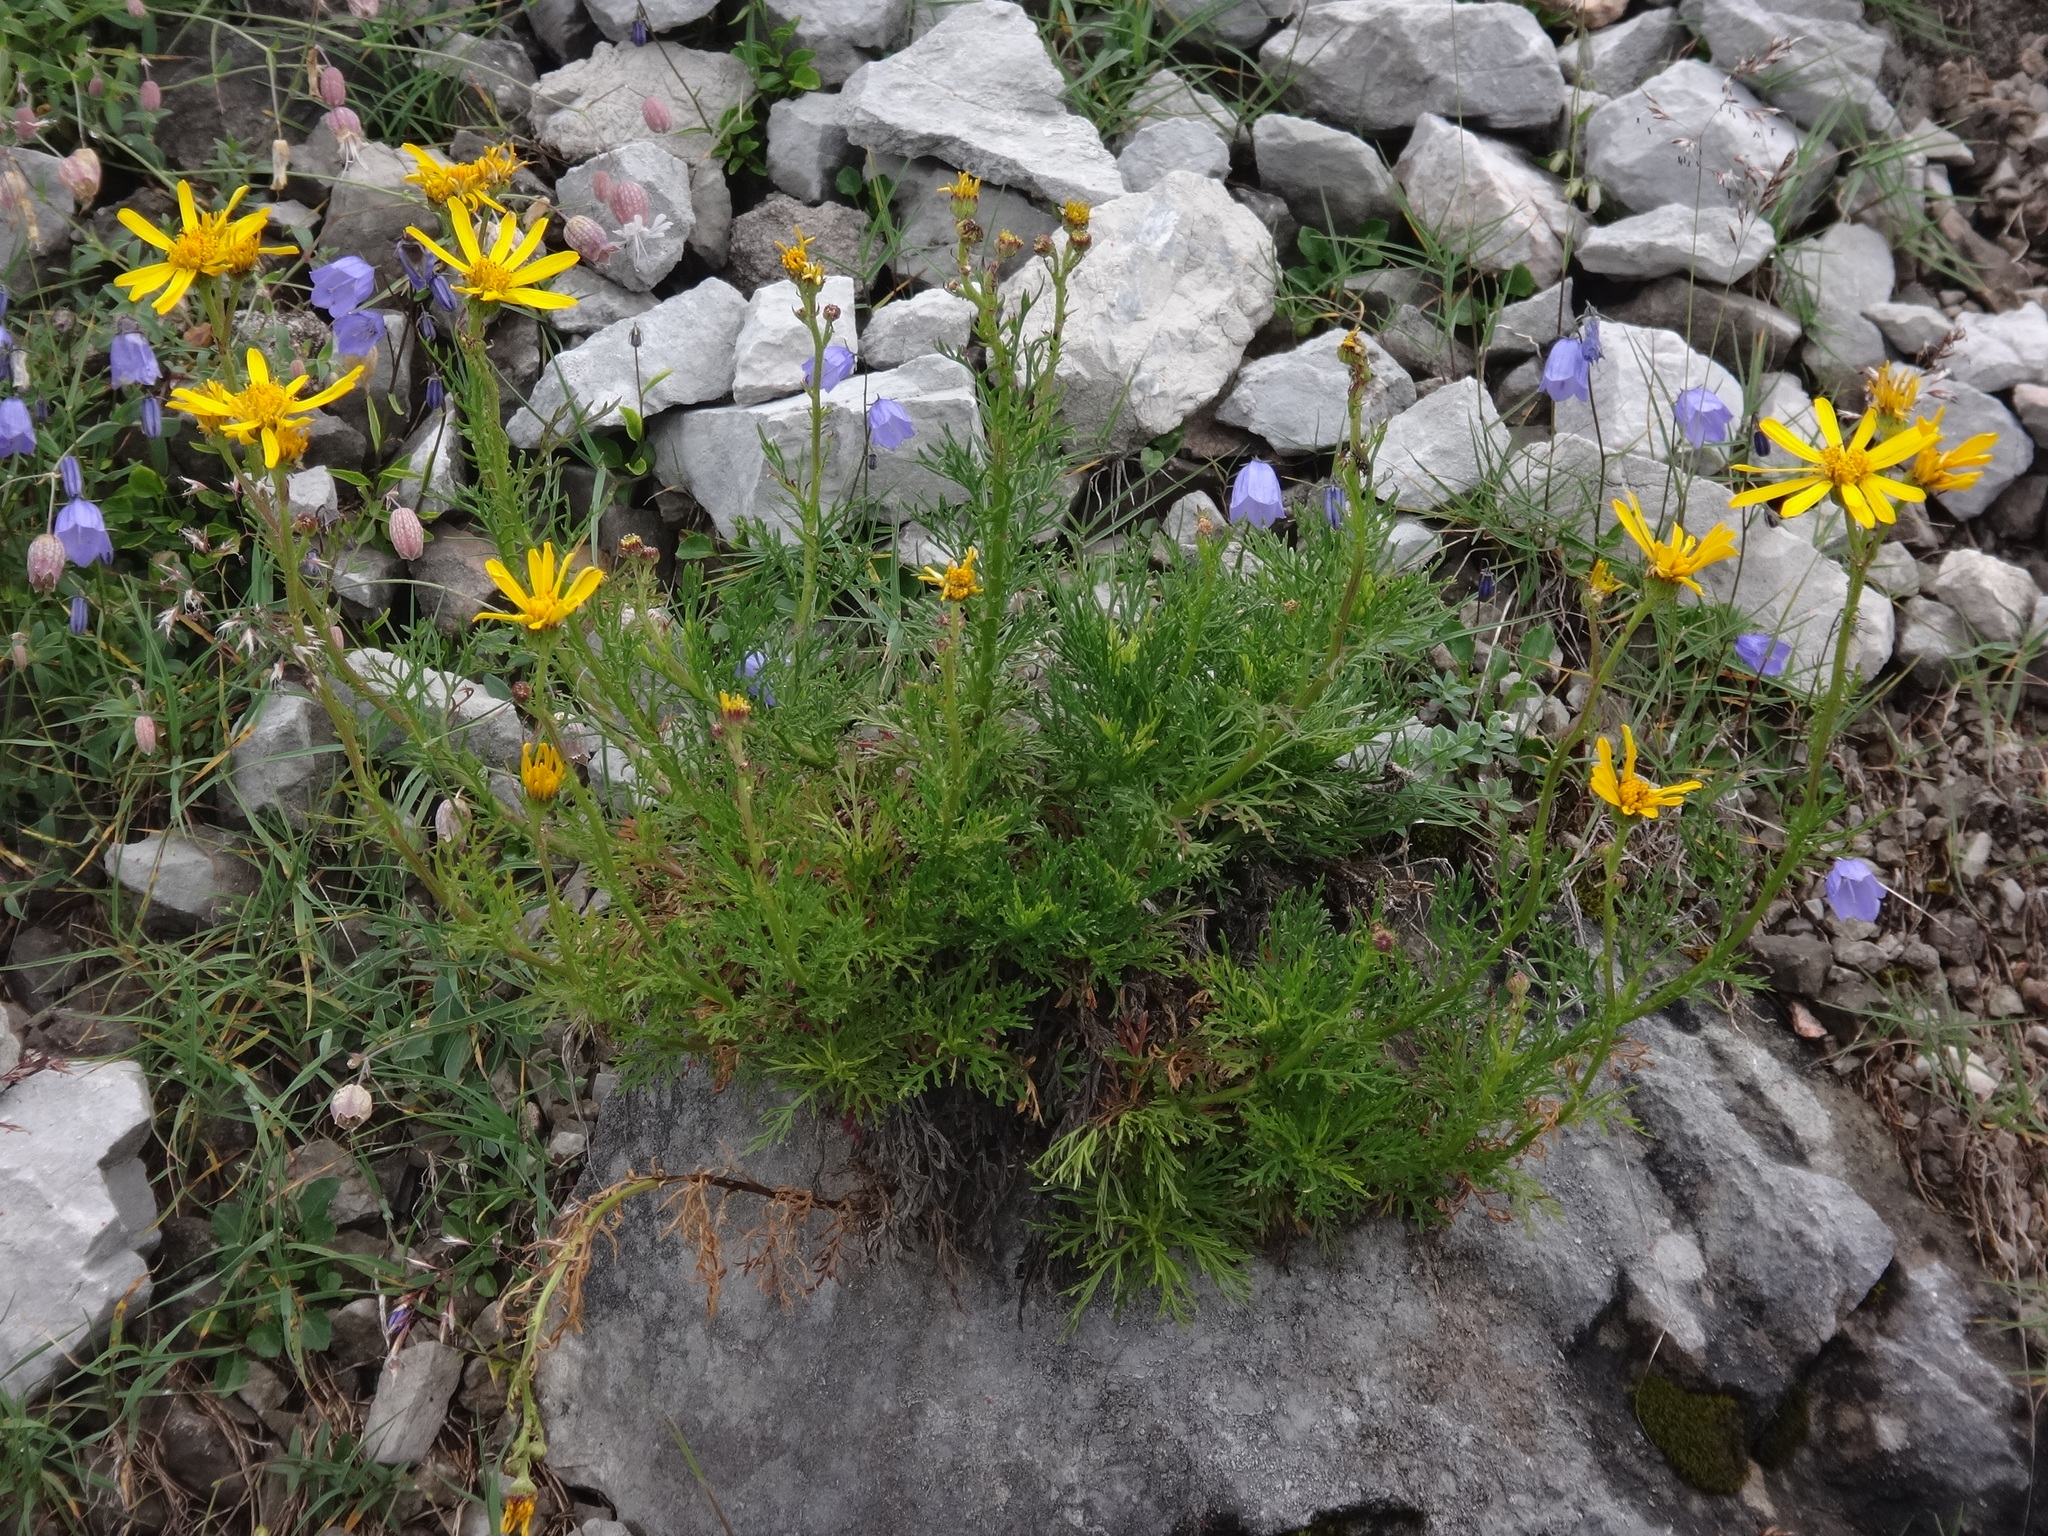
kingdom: Plantae
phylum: Tracheophyta
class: Magnoliopsida
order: Asterales
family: Asteraceae
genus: Jacobaea
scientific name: Jacobaea abrotanifolia
